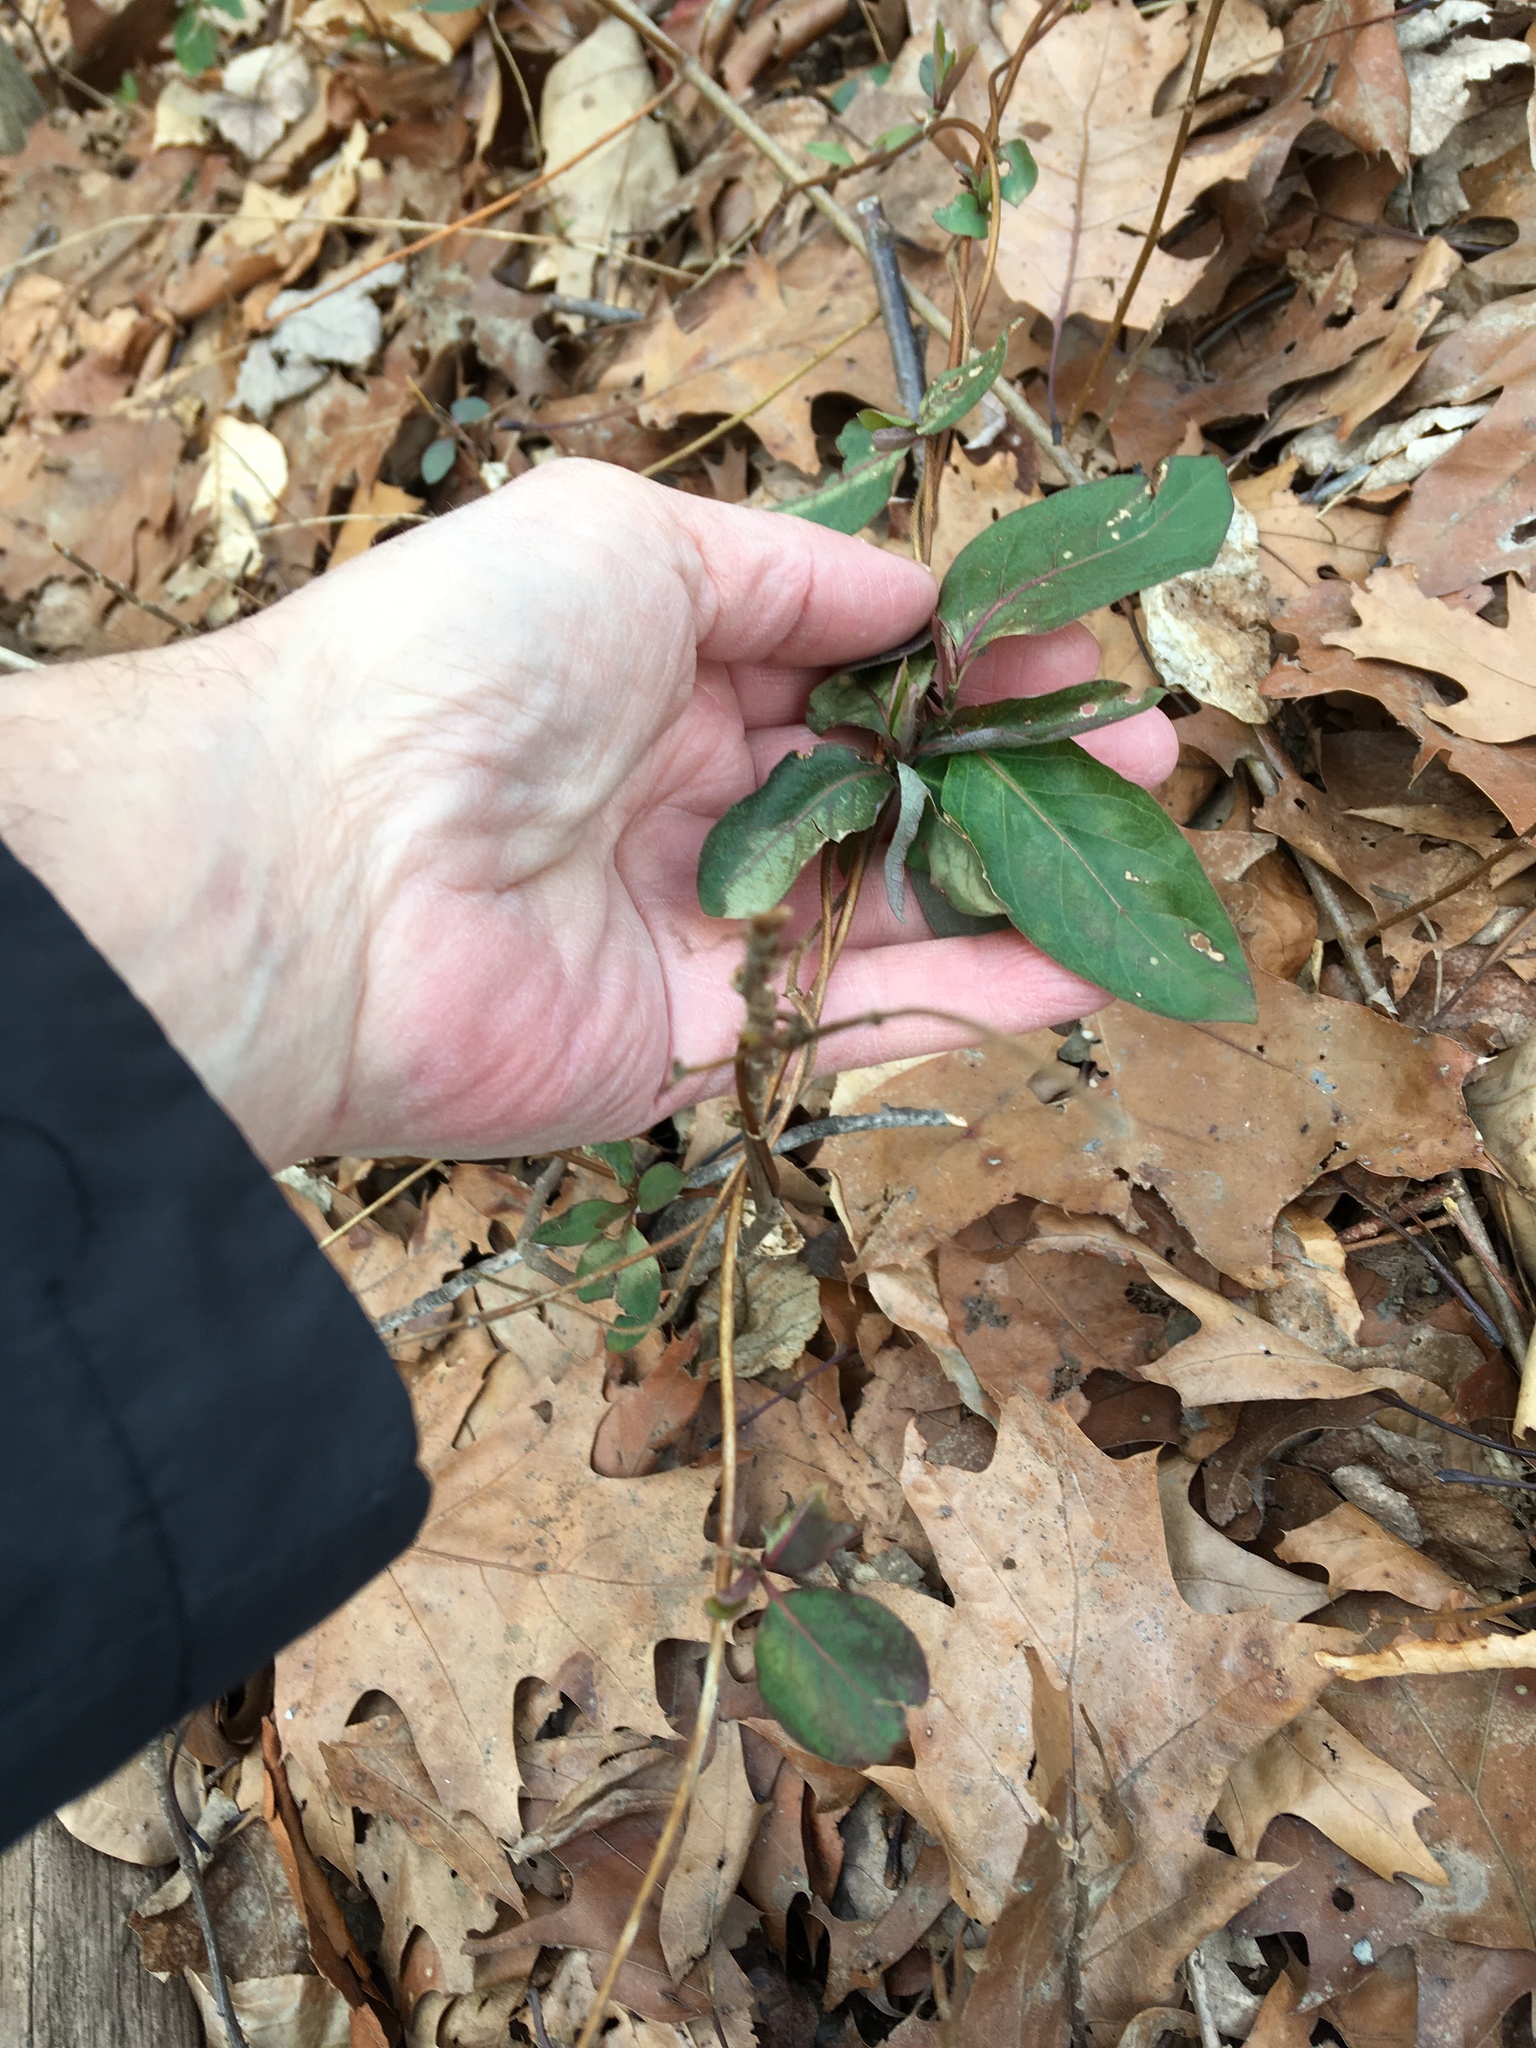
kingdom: Plantae
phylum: Tracheophyta
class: Magnoliopsida
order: Dipsacales
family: Caprifoliaceae
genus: Lonicera
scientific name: Lonicera japonica
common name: Japanese honeysuckle
